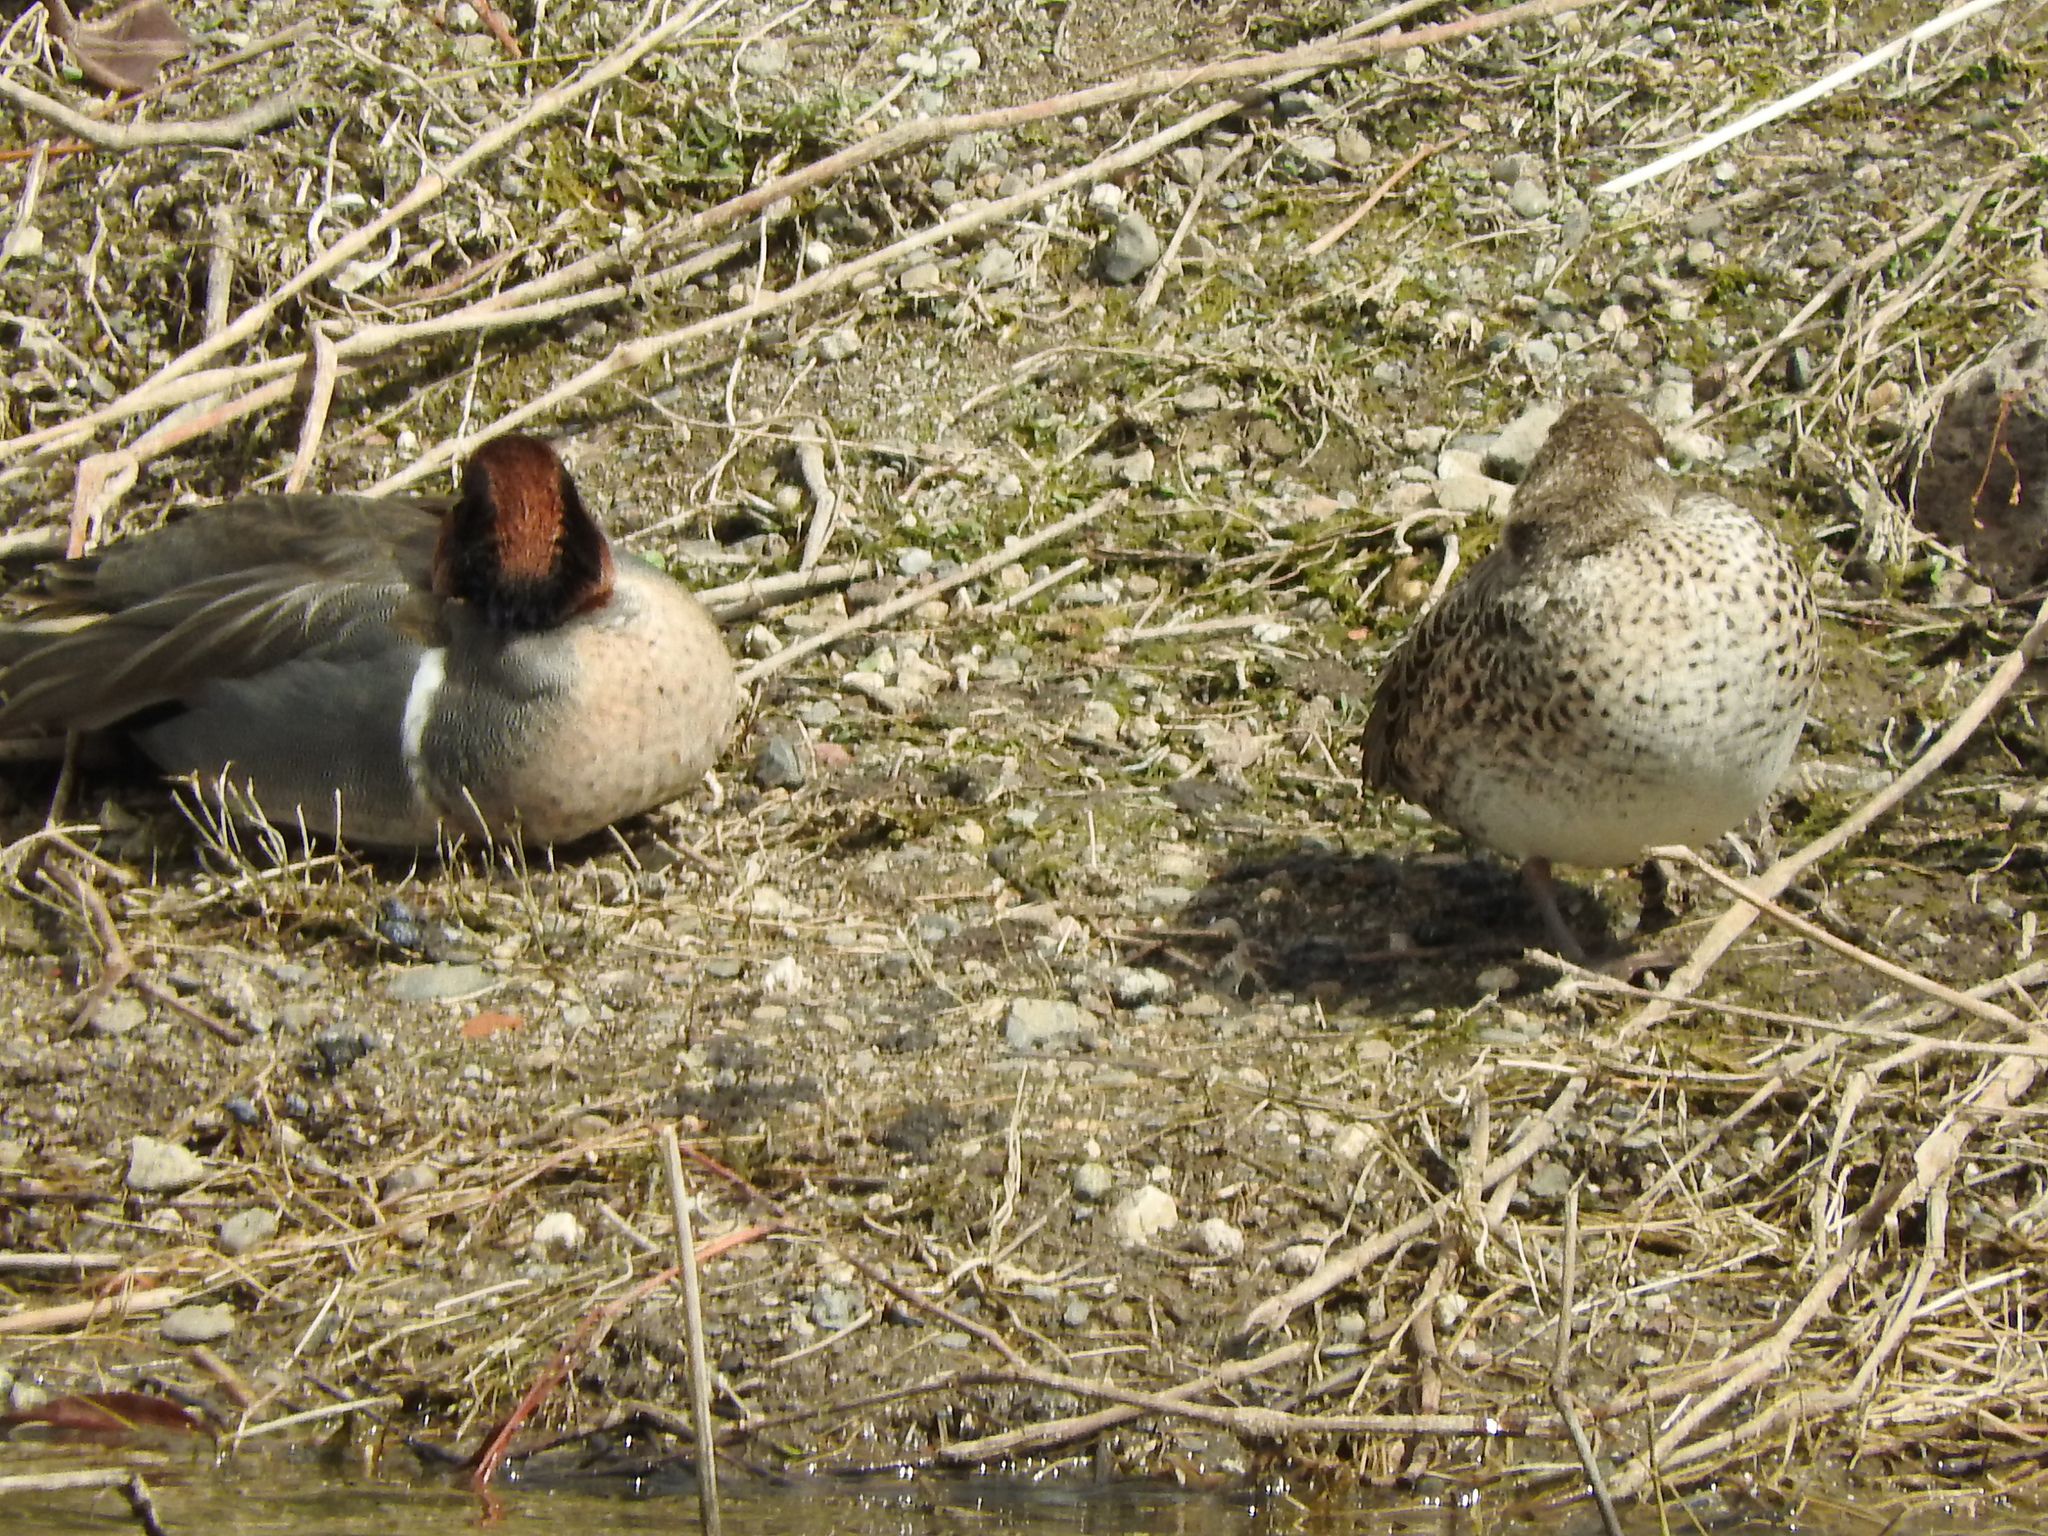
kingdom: Animalia
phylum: Chordata
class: Aves
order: Anseriformes
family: Anatidae
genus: Anas
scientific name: Anas carolinensis
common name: Green-winged teal
